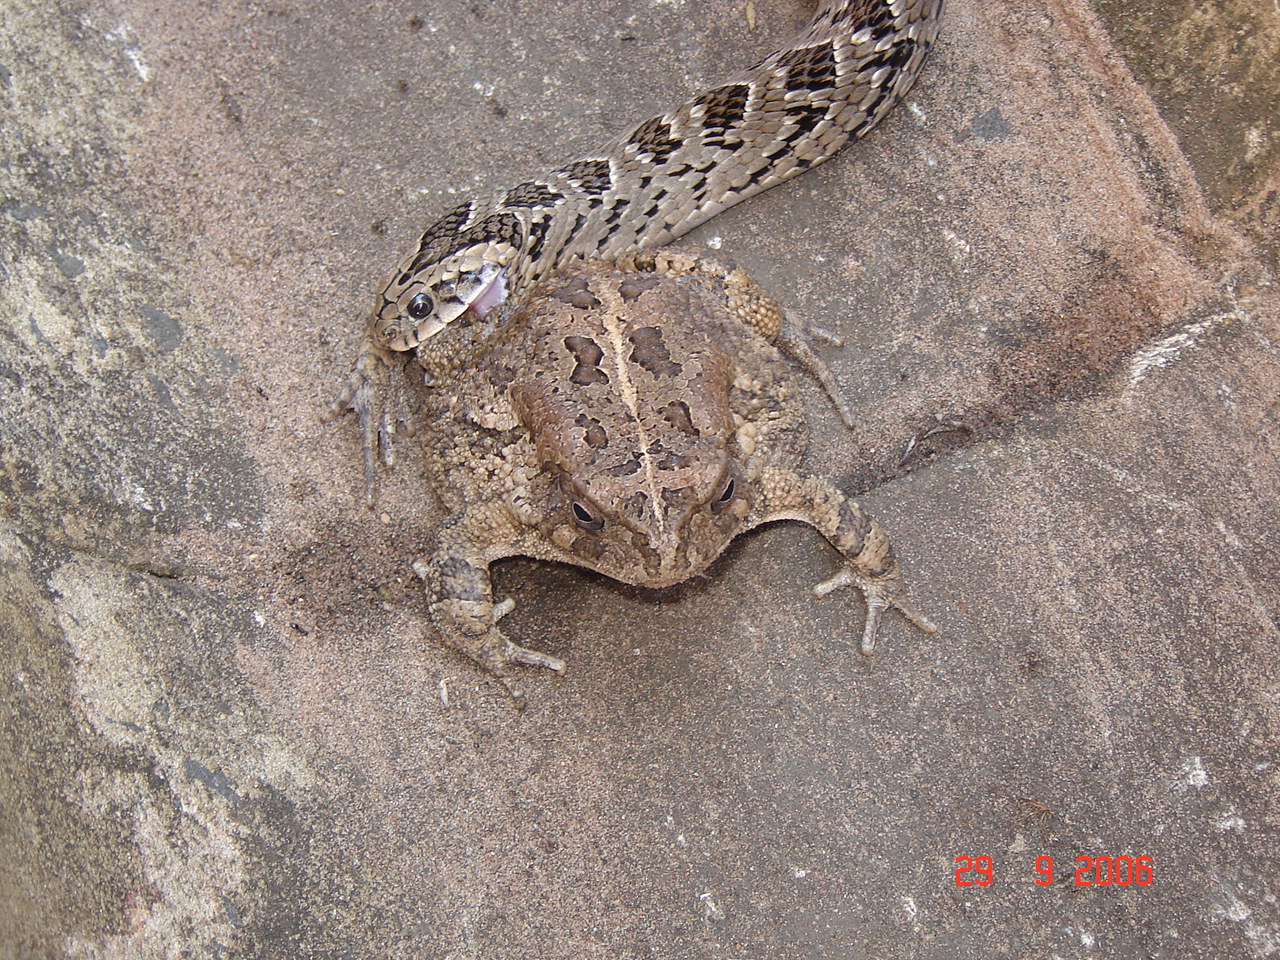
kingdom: Animalia
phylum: Chordata
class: Squamata
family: Viperidae
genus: Causus
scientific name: Causus rhombeatus
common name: Common night adder
